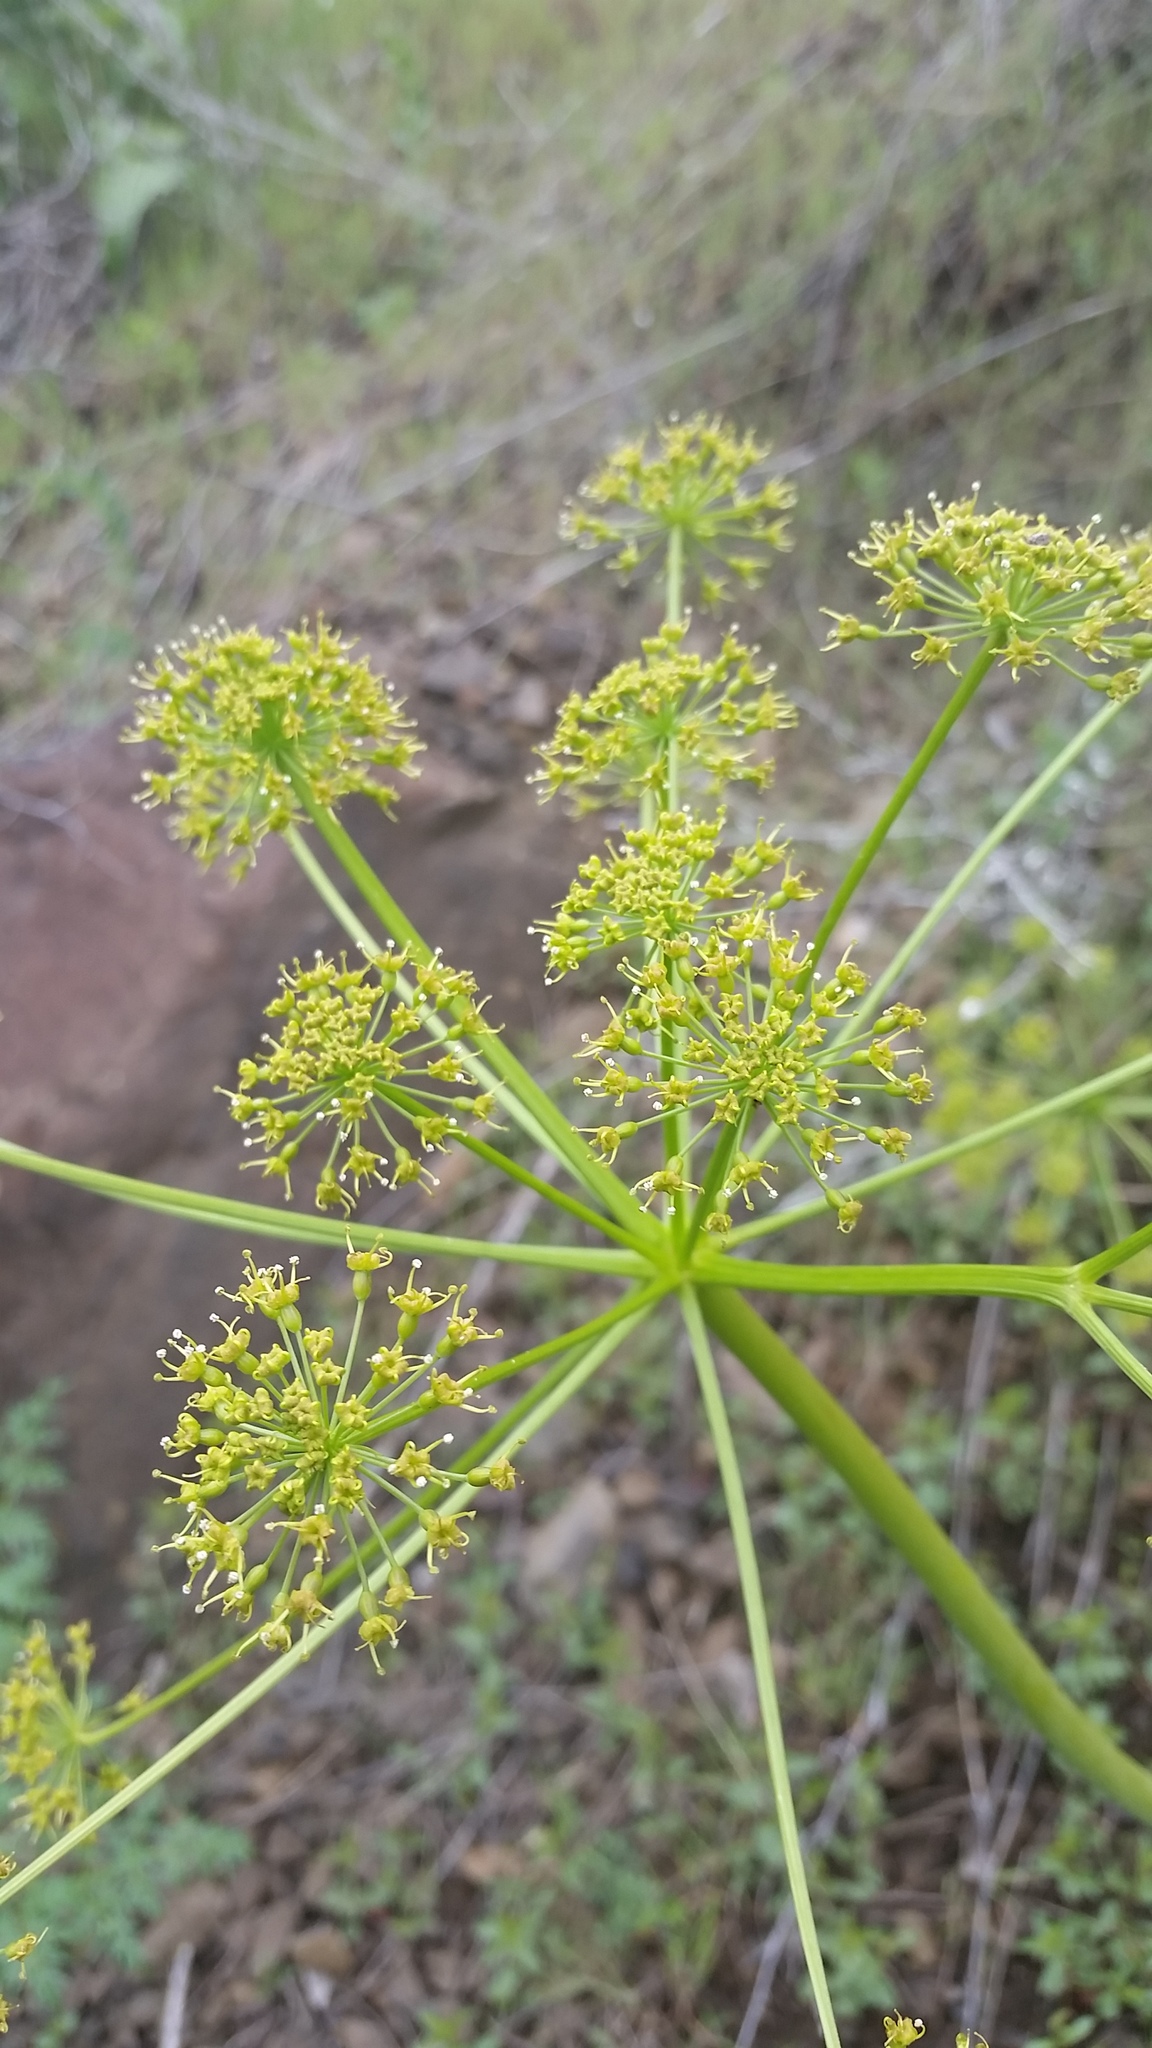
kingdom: Plantae
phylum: Tracheophyta
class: Magnoliopsida
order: Apiales
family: Apiaceae
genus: Lomatium
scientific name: Lomatium multifidum
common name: Carrot-leaved biscuitroot
